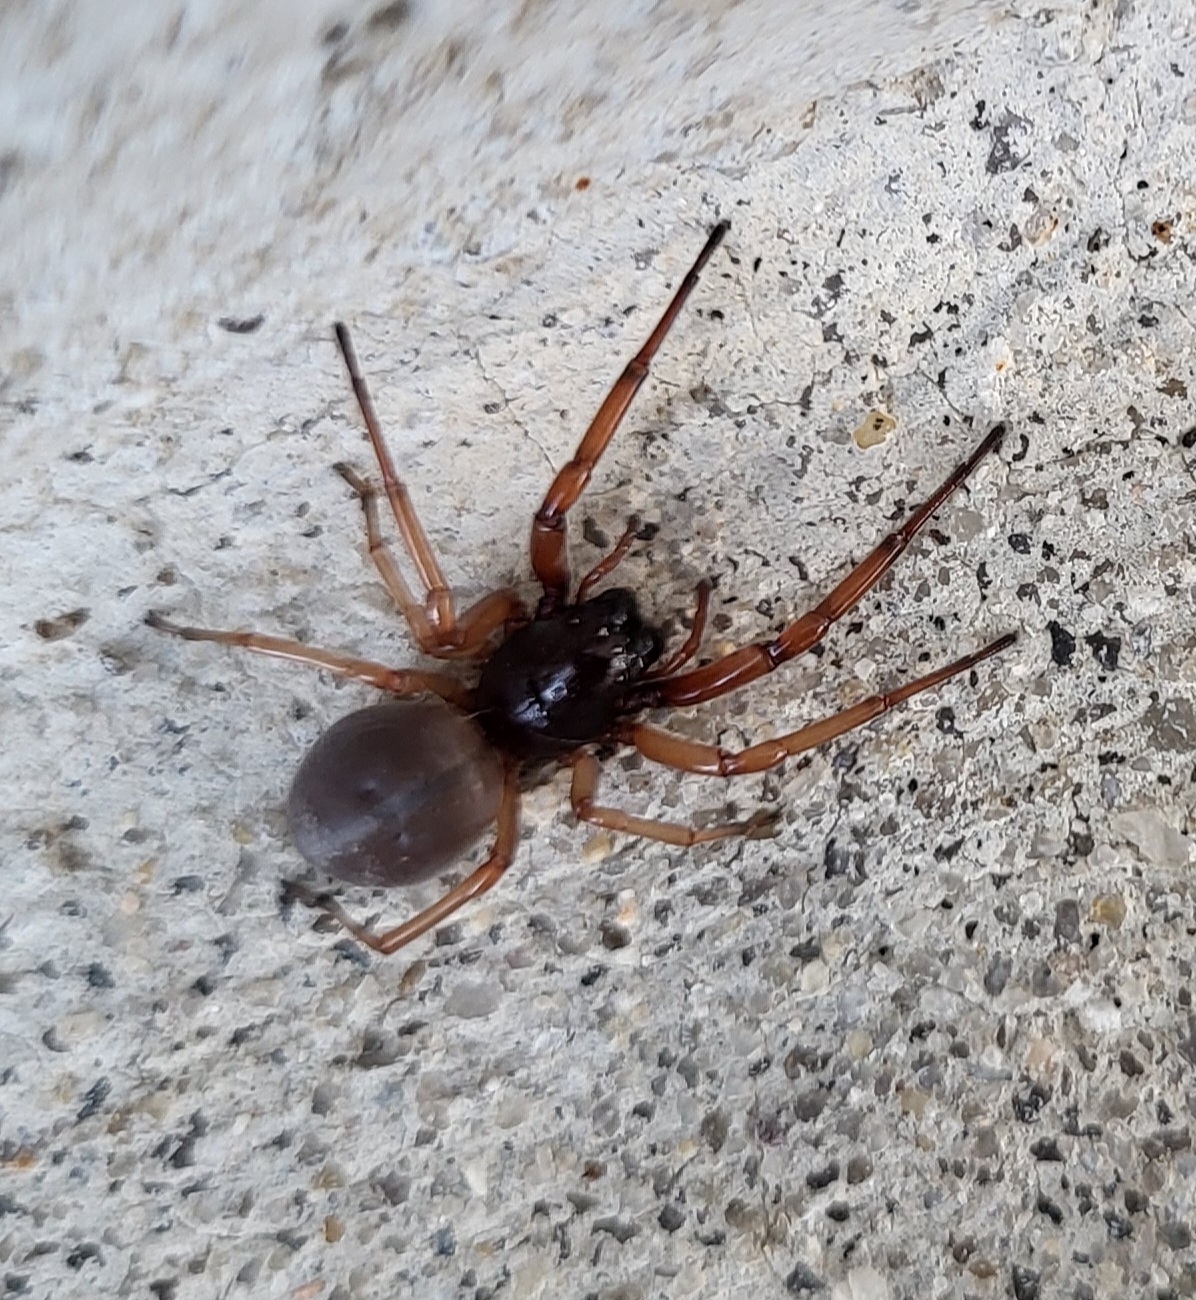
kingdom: Animalia
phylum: Arthropoda
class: Arachnida
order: Araneae
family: Trachelidae
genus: Trachelas
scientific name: Trachelas tranquillus
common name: Broad-faced sac spider
